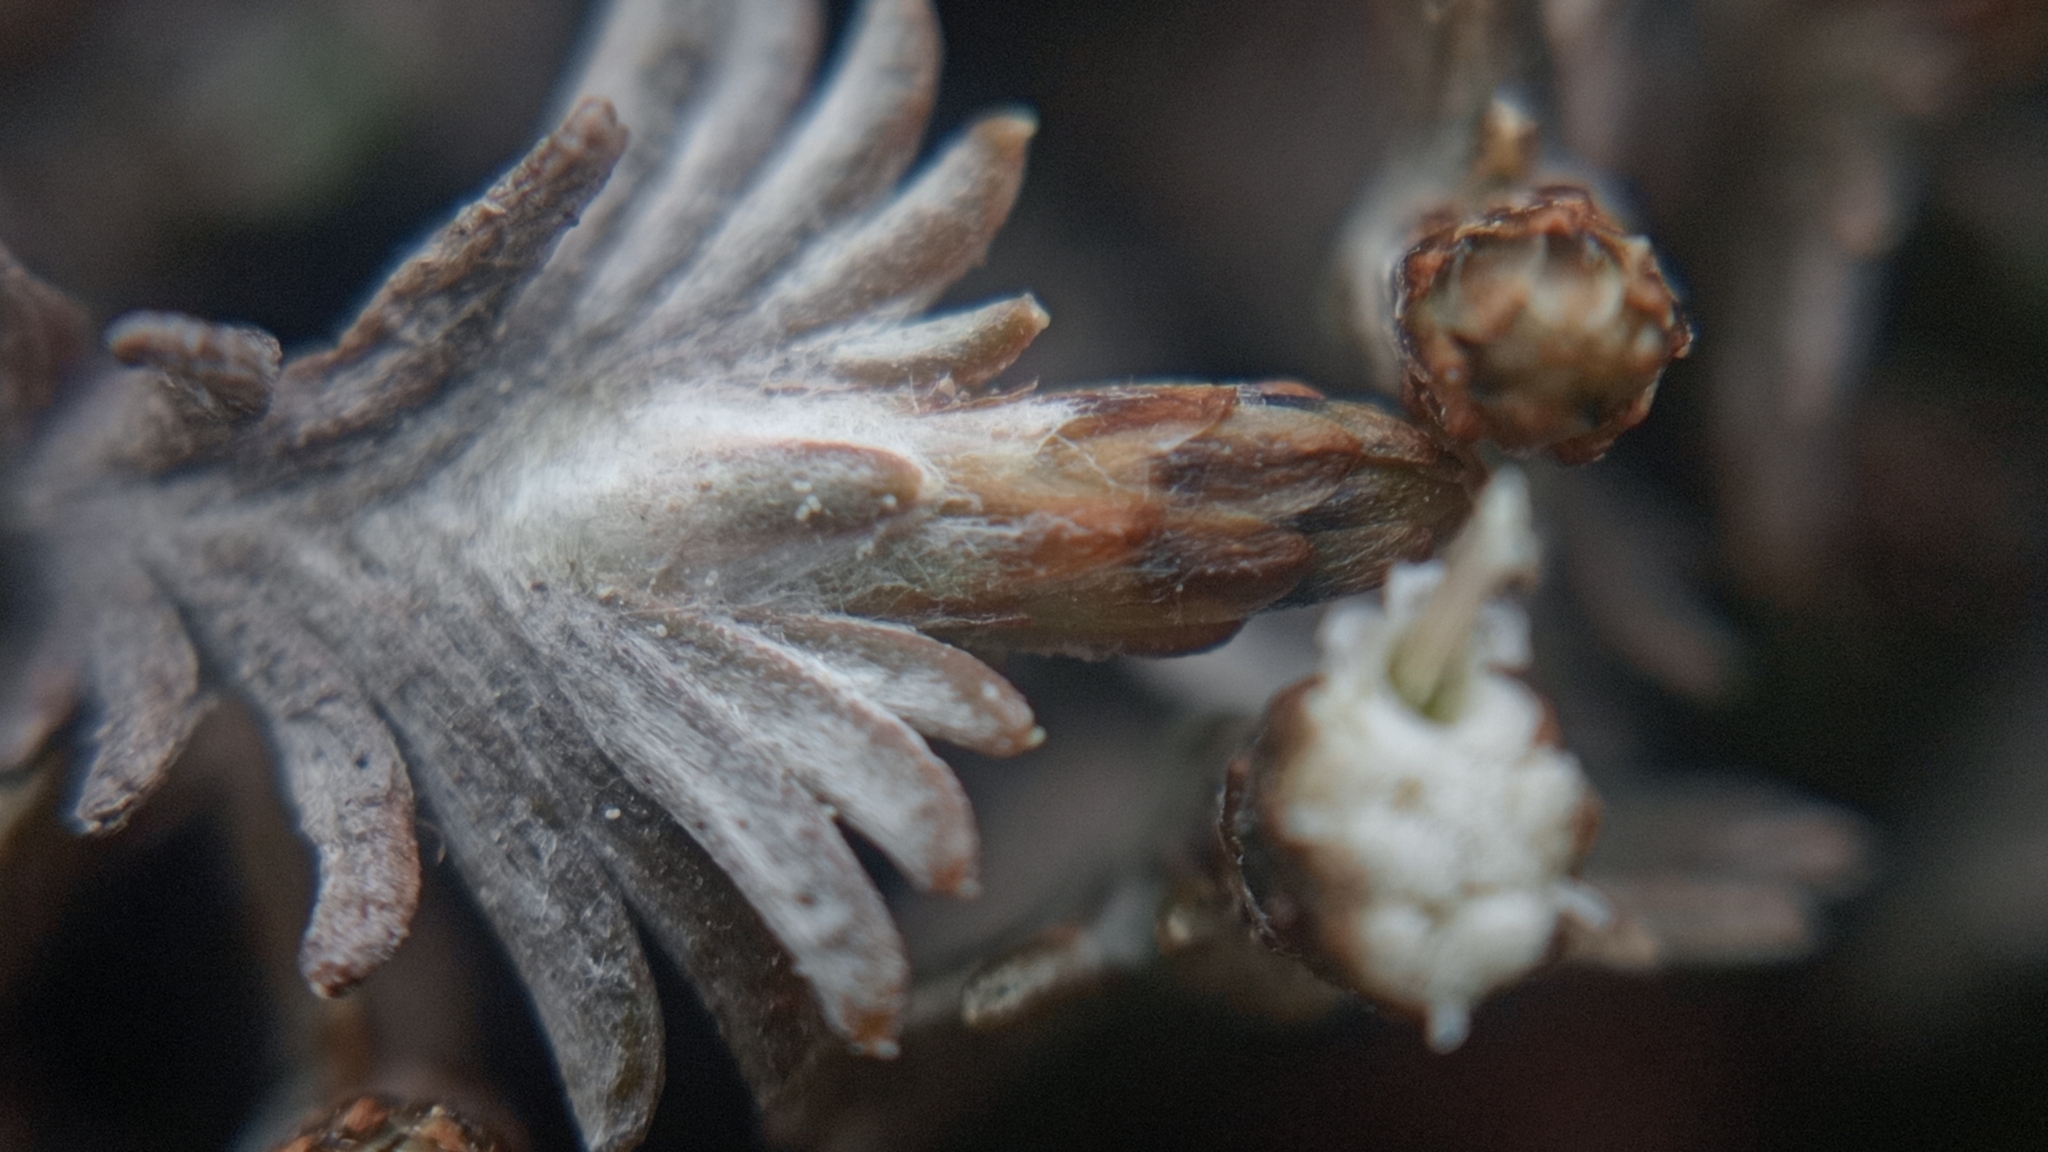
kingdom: Plantae
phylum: Tracheophyta
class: Magnoliopsida
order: Asterales
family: Asteraceae
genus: Raoulia
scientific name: Raoulia monroi
